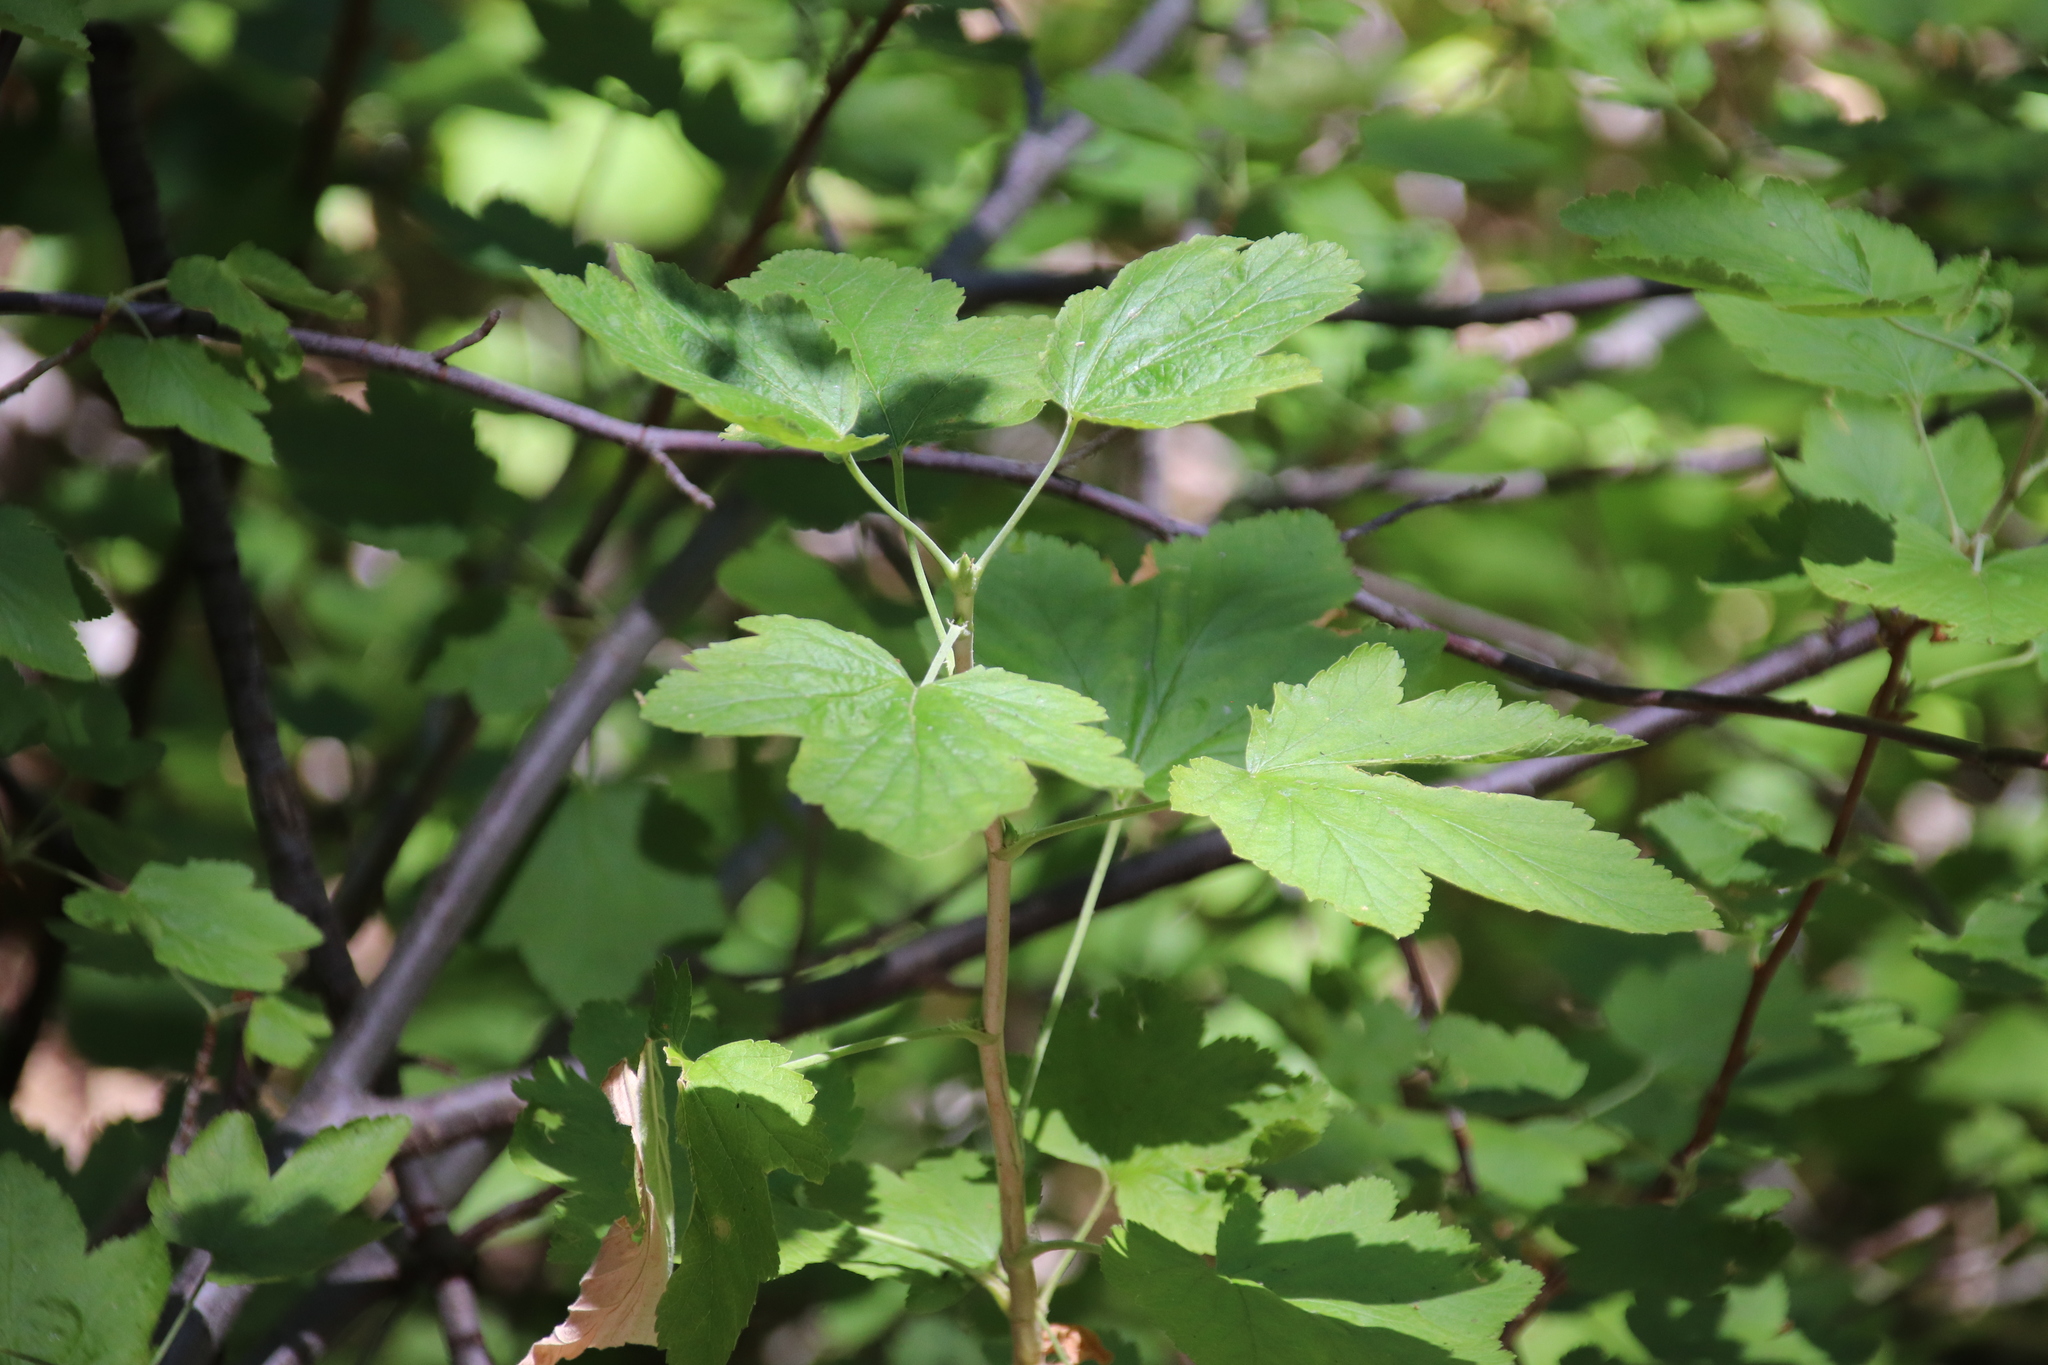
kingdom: Plantae
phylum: Tracheophyta
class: Magnoliopsida
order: Saxifragales
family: Grossulariaceae
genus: Ribes
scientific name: Ribes nevadense
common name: Mountain pink currant
